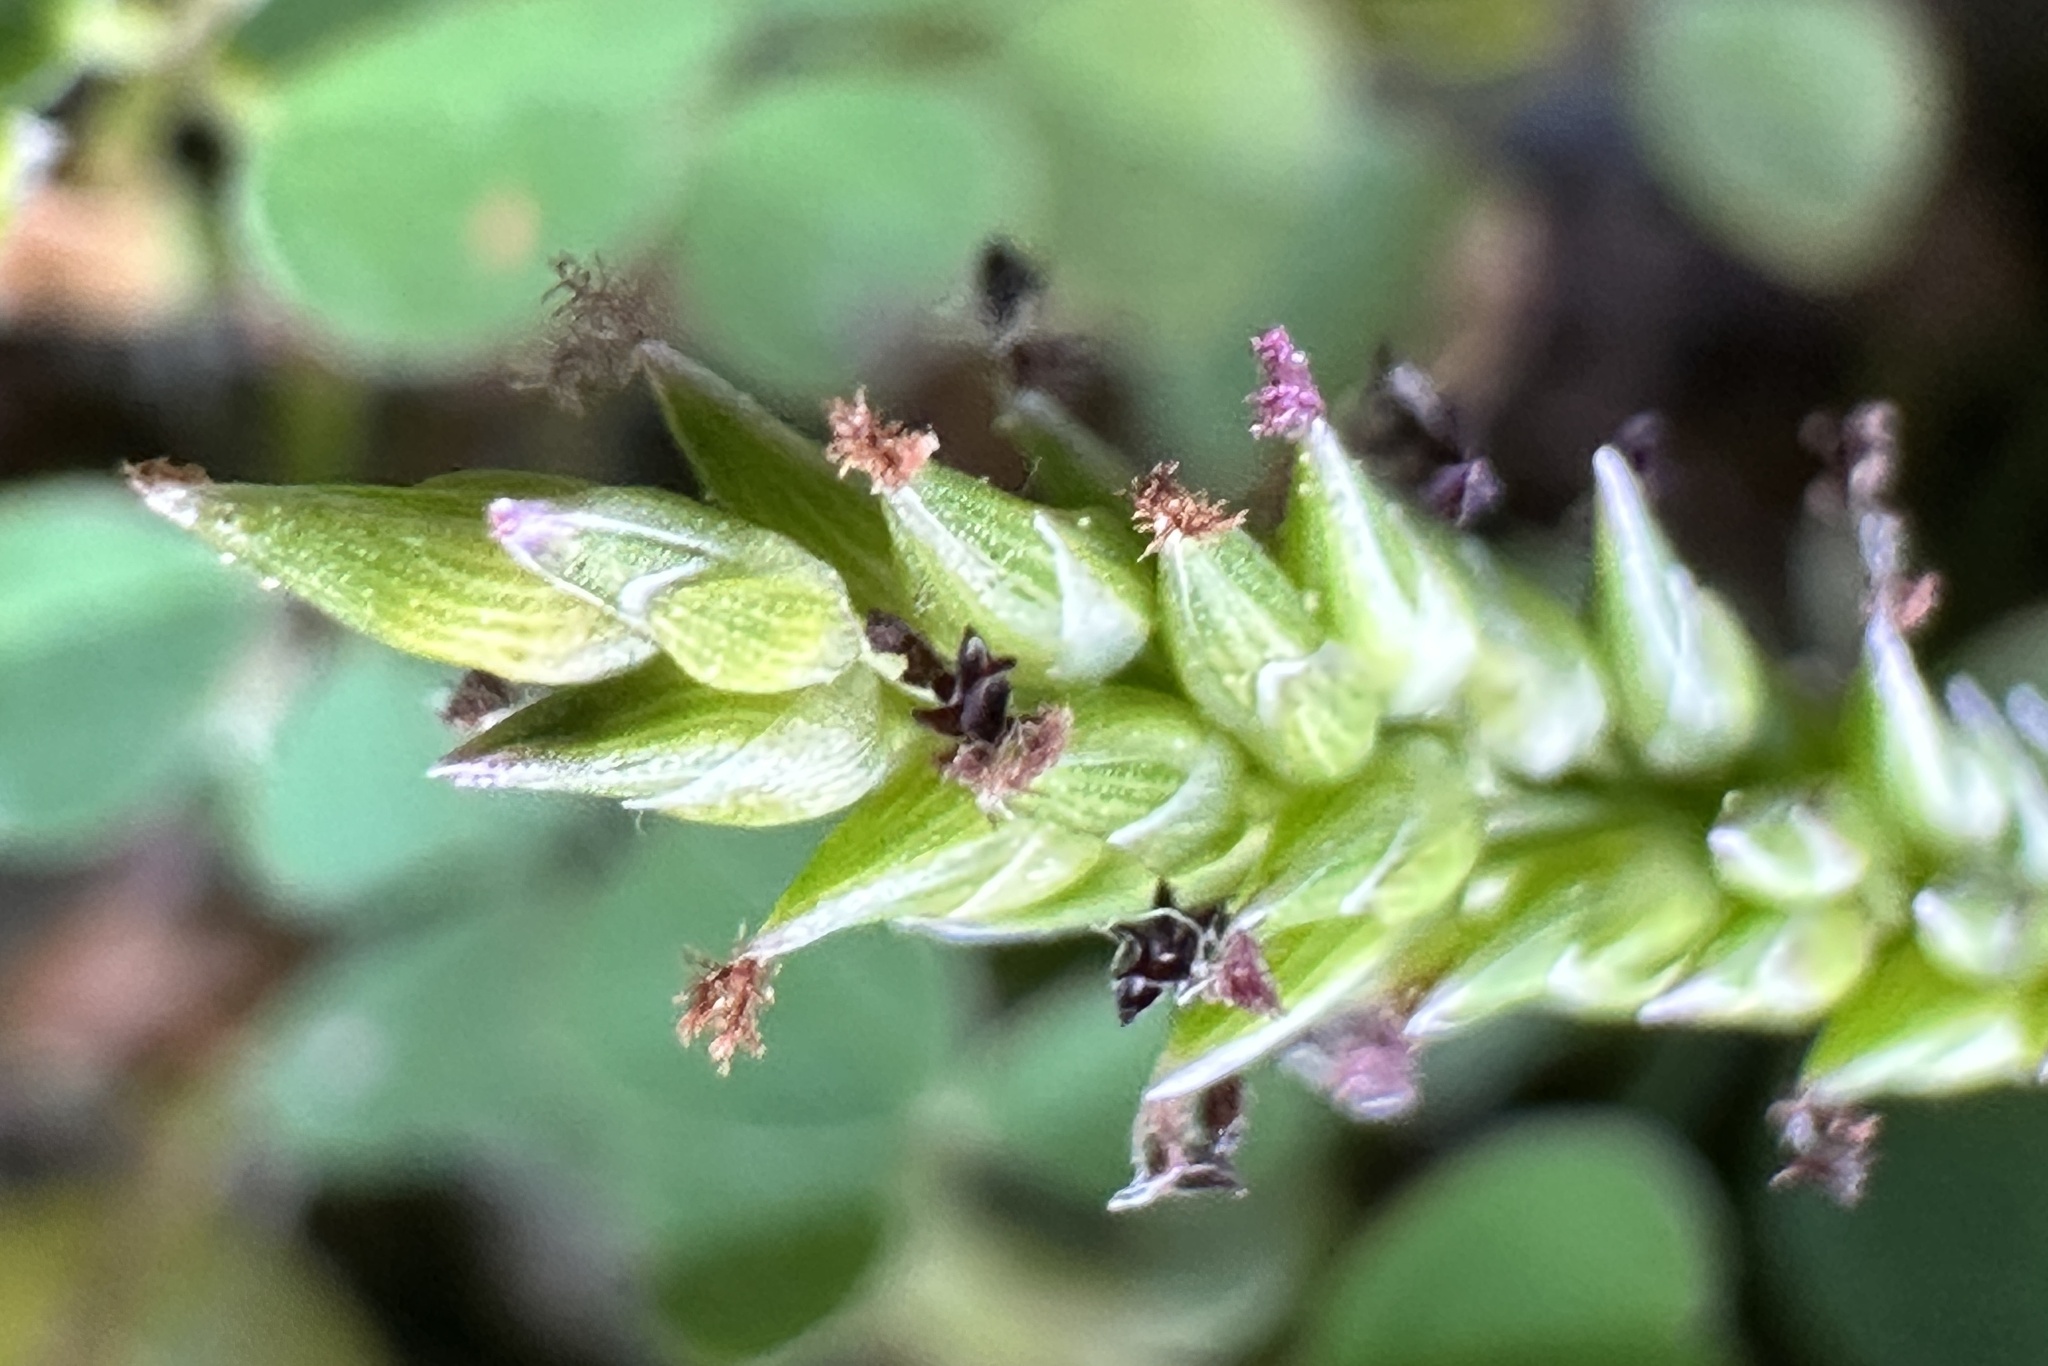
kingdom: Plantae
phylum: Tracheophyta
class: Liliopsida
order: Poales
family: Poaceae
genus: Sacciolepis
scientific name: Sacciolepis indica
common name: Glenwoodgrass
